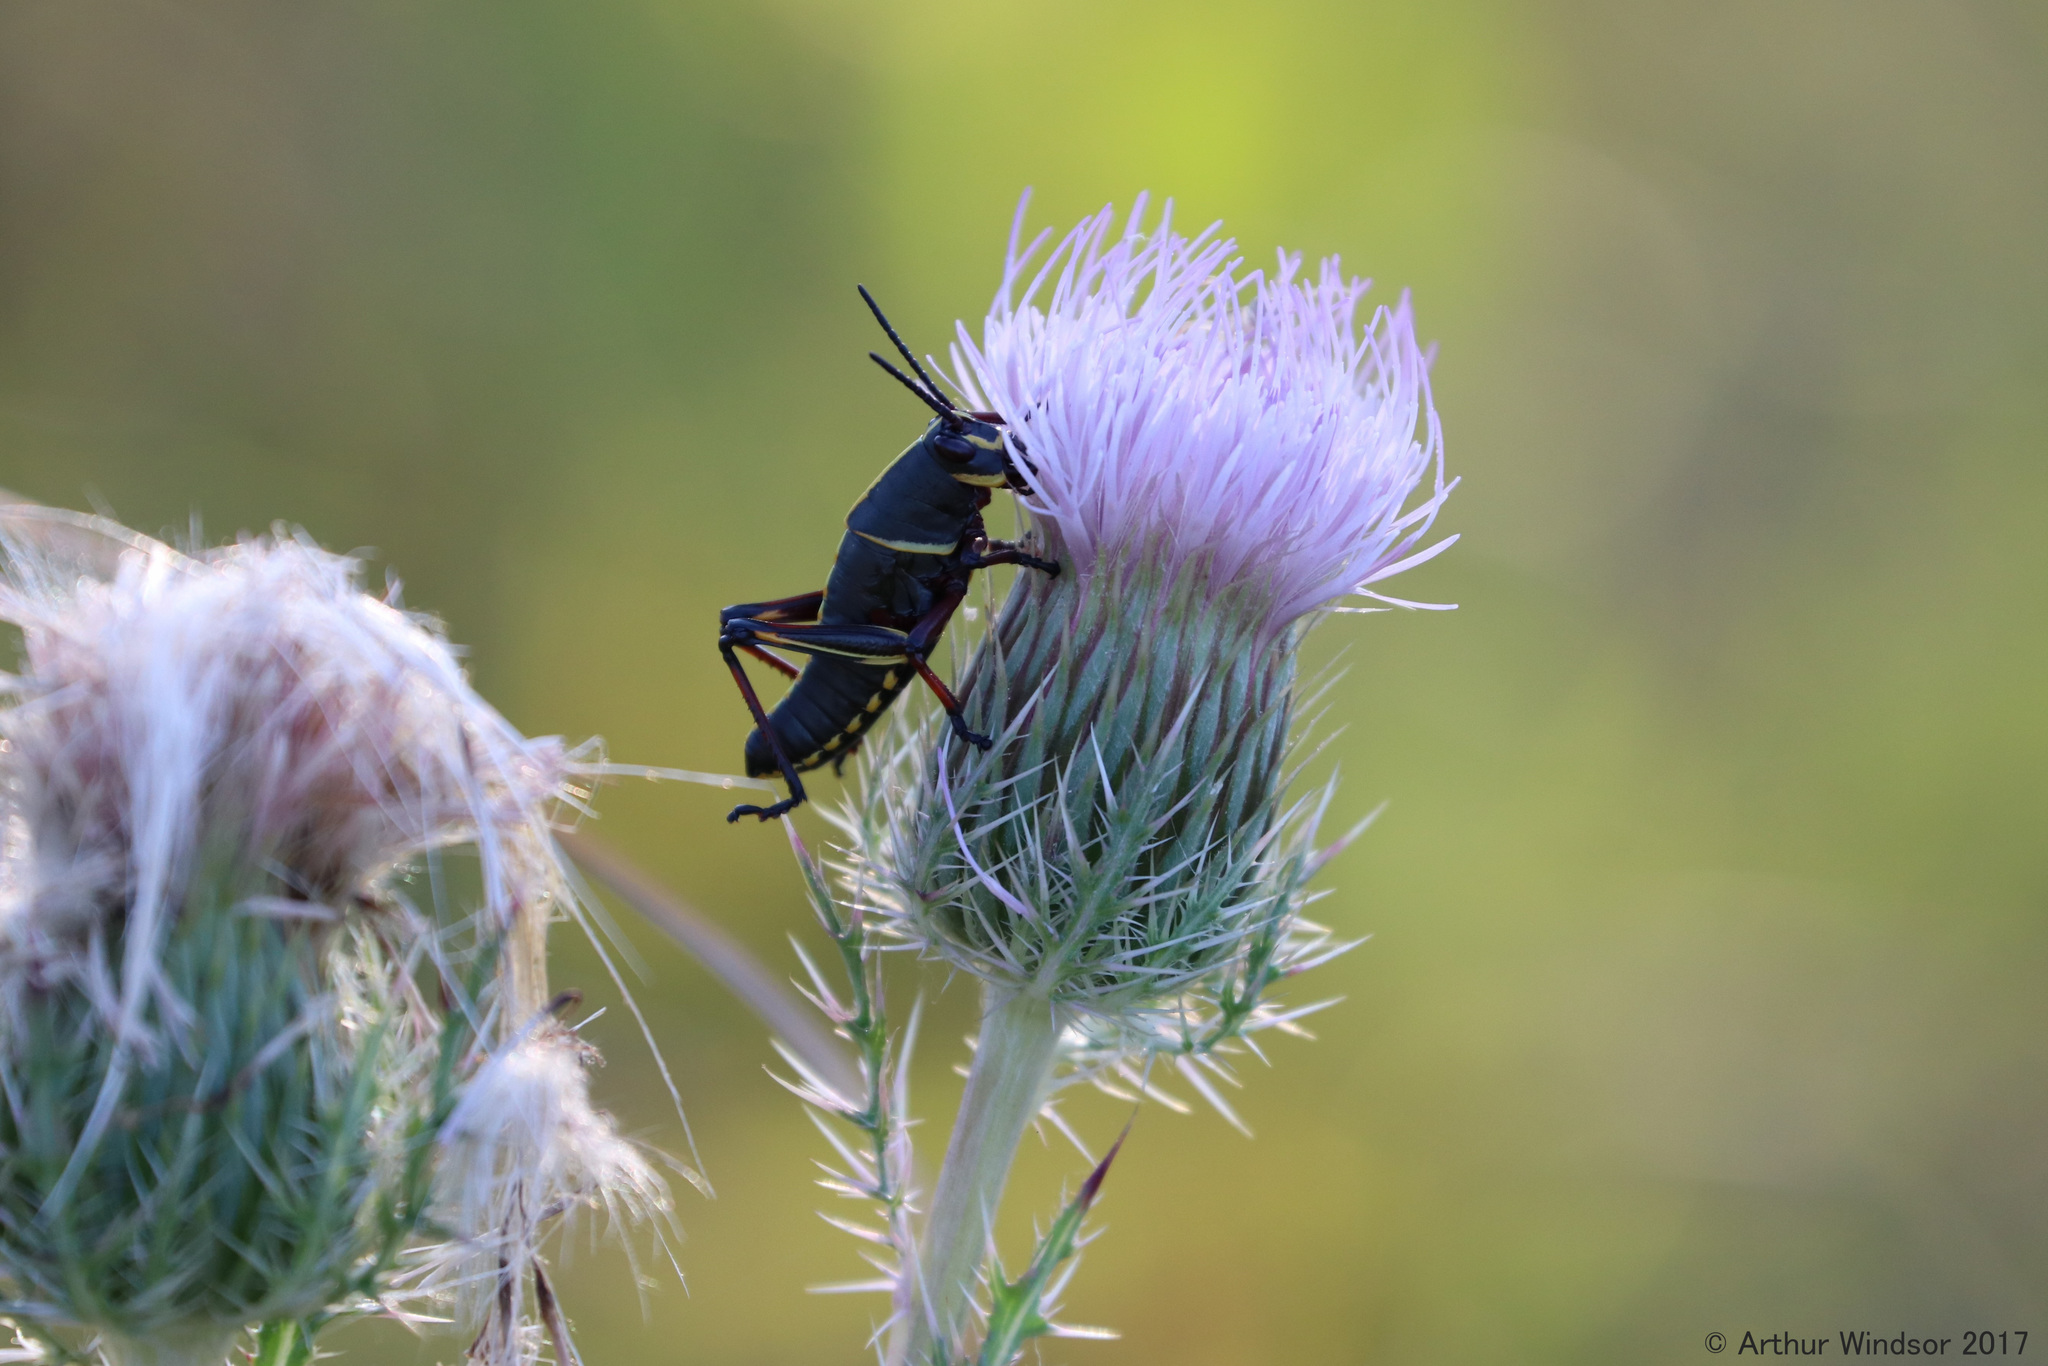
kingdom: Animalia
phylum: Arthropoda
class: Insecta
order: Orthoptera
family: Romaleidae
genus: Romalea
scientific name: Romalea microptera
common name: Eastern lubber grasshopper
